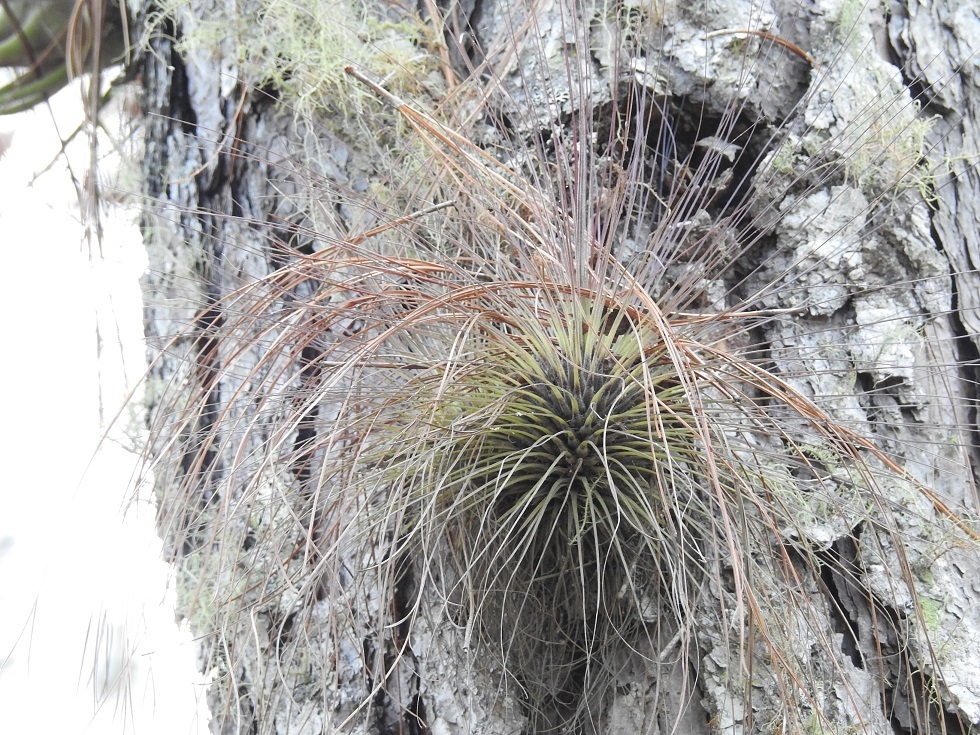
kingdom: Plantae
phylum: Tracheophyta
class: Liliopsida
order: Poales
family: Bromeliaceae
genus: Tillandsia
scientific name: Tillandsia filifolia
